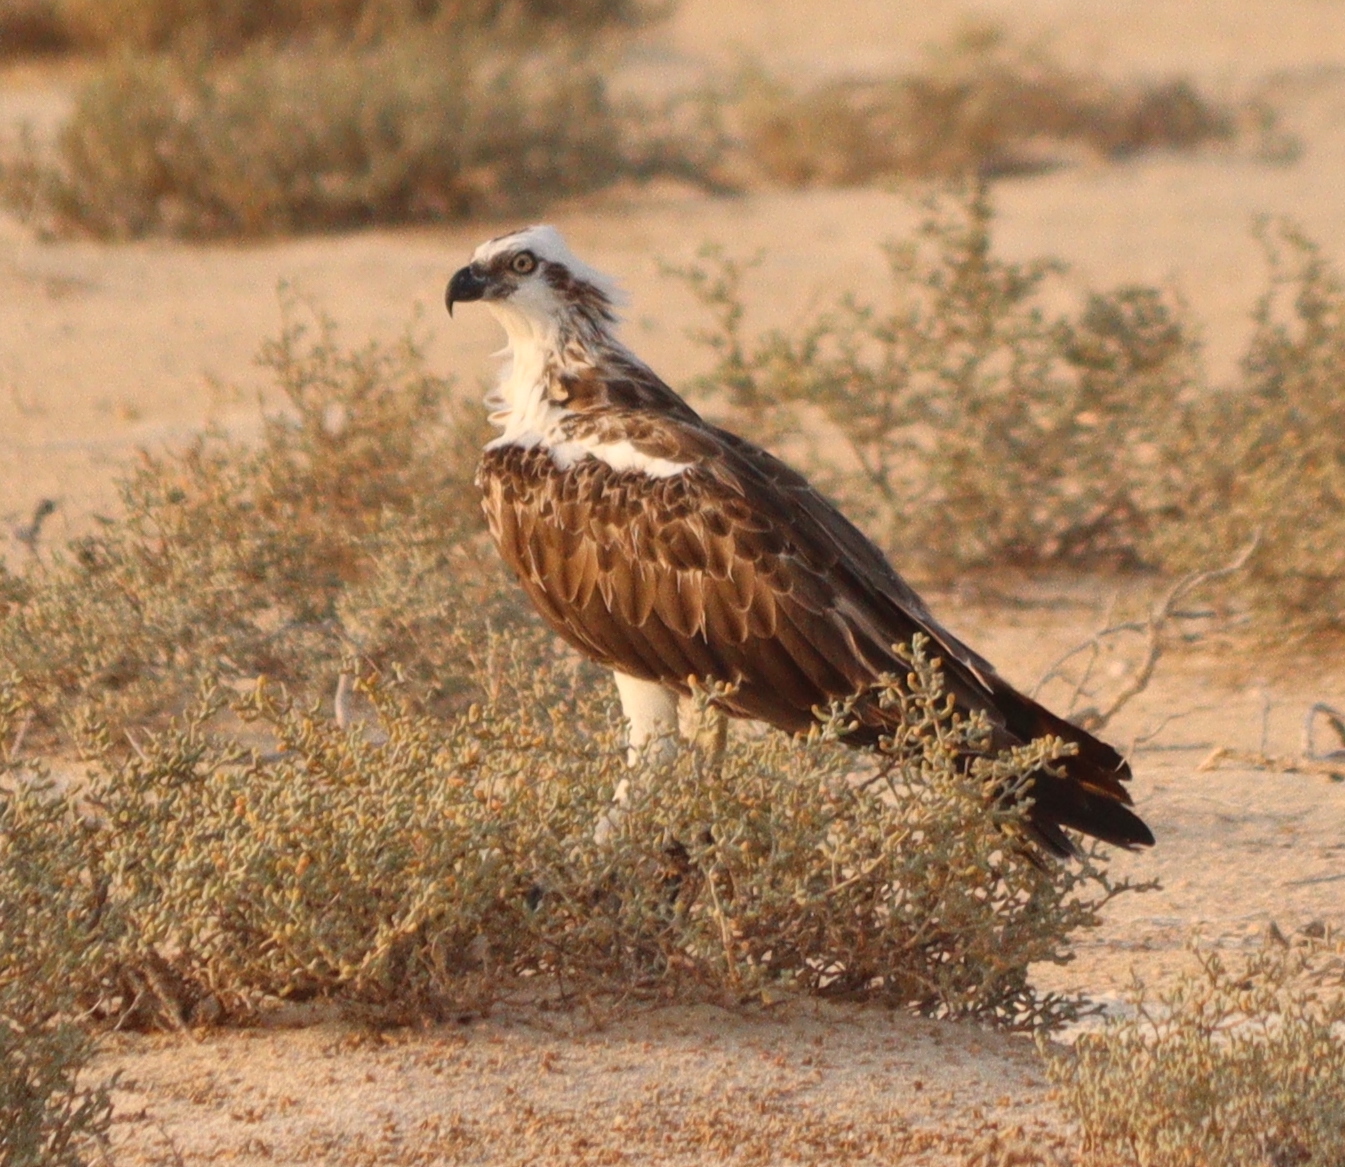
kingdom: Animalia
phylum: Chordata
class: Aves
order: Accipitriformes
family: Pandionidae
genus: Pandion
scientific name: Pandion haliaetus
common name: Osprey
